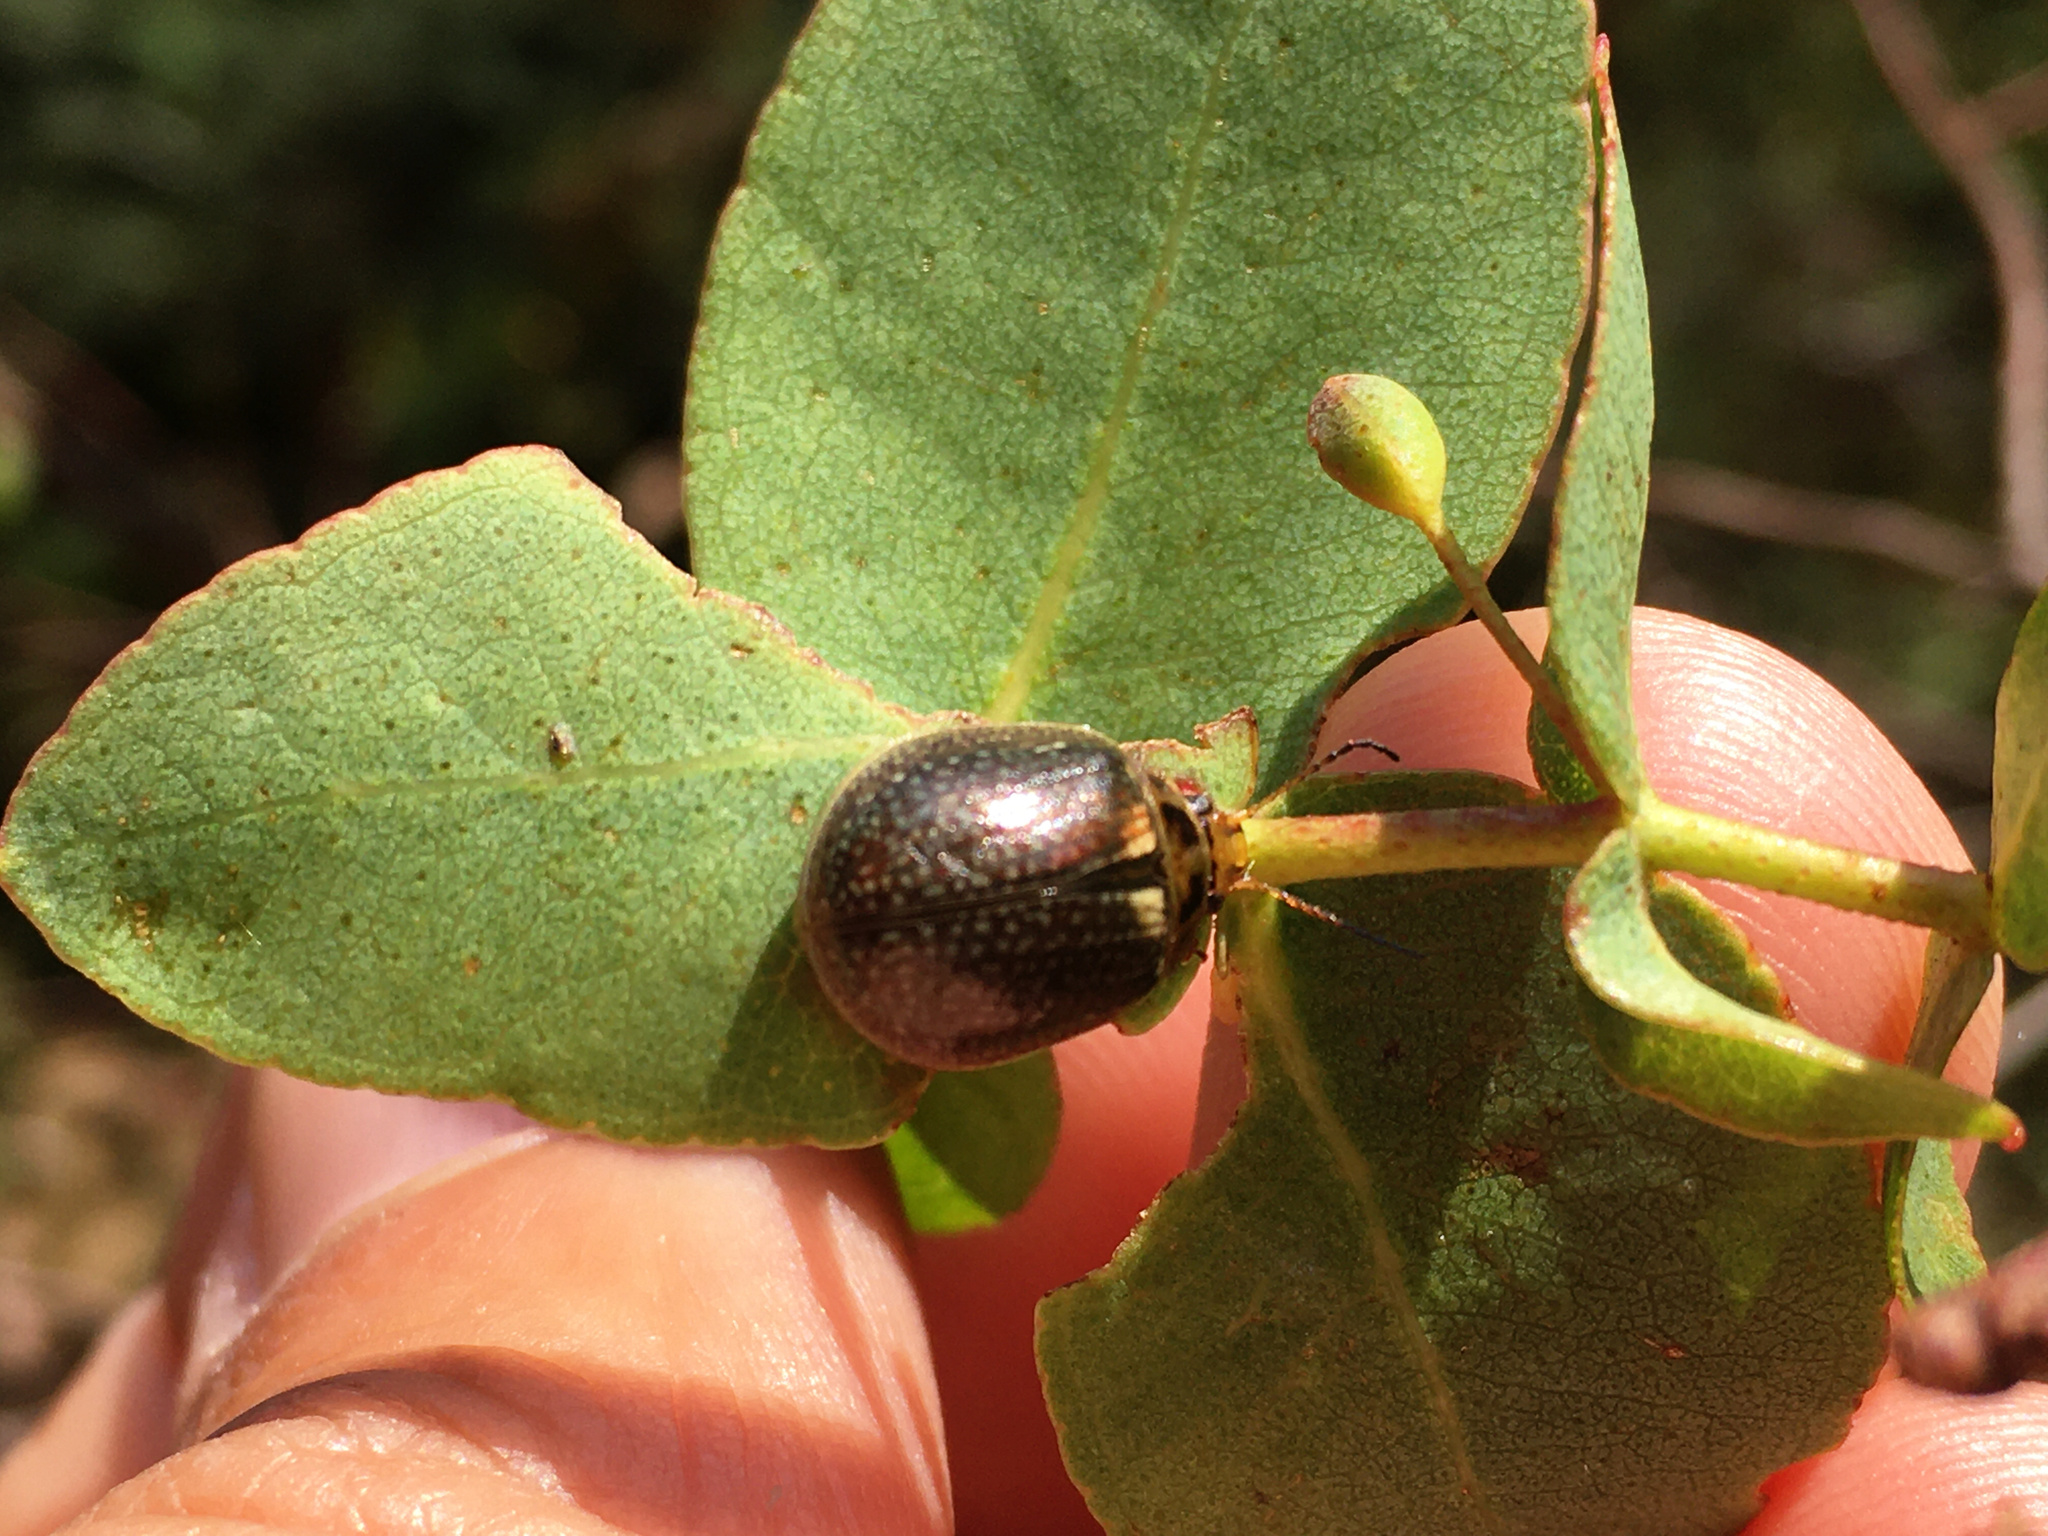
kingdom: Animalia
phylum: Arthropoda
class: Insecta
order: Coleoptera
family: Chrysomelidae
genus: Paropsisterna
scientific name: Paropsisterna agricola
